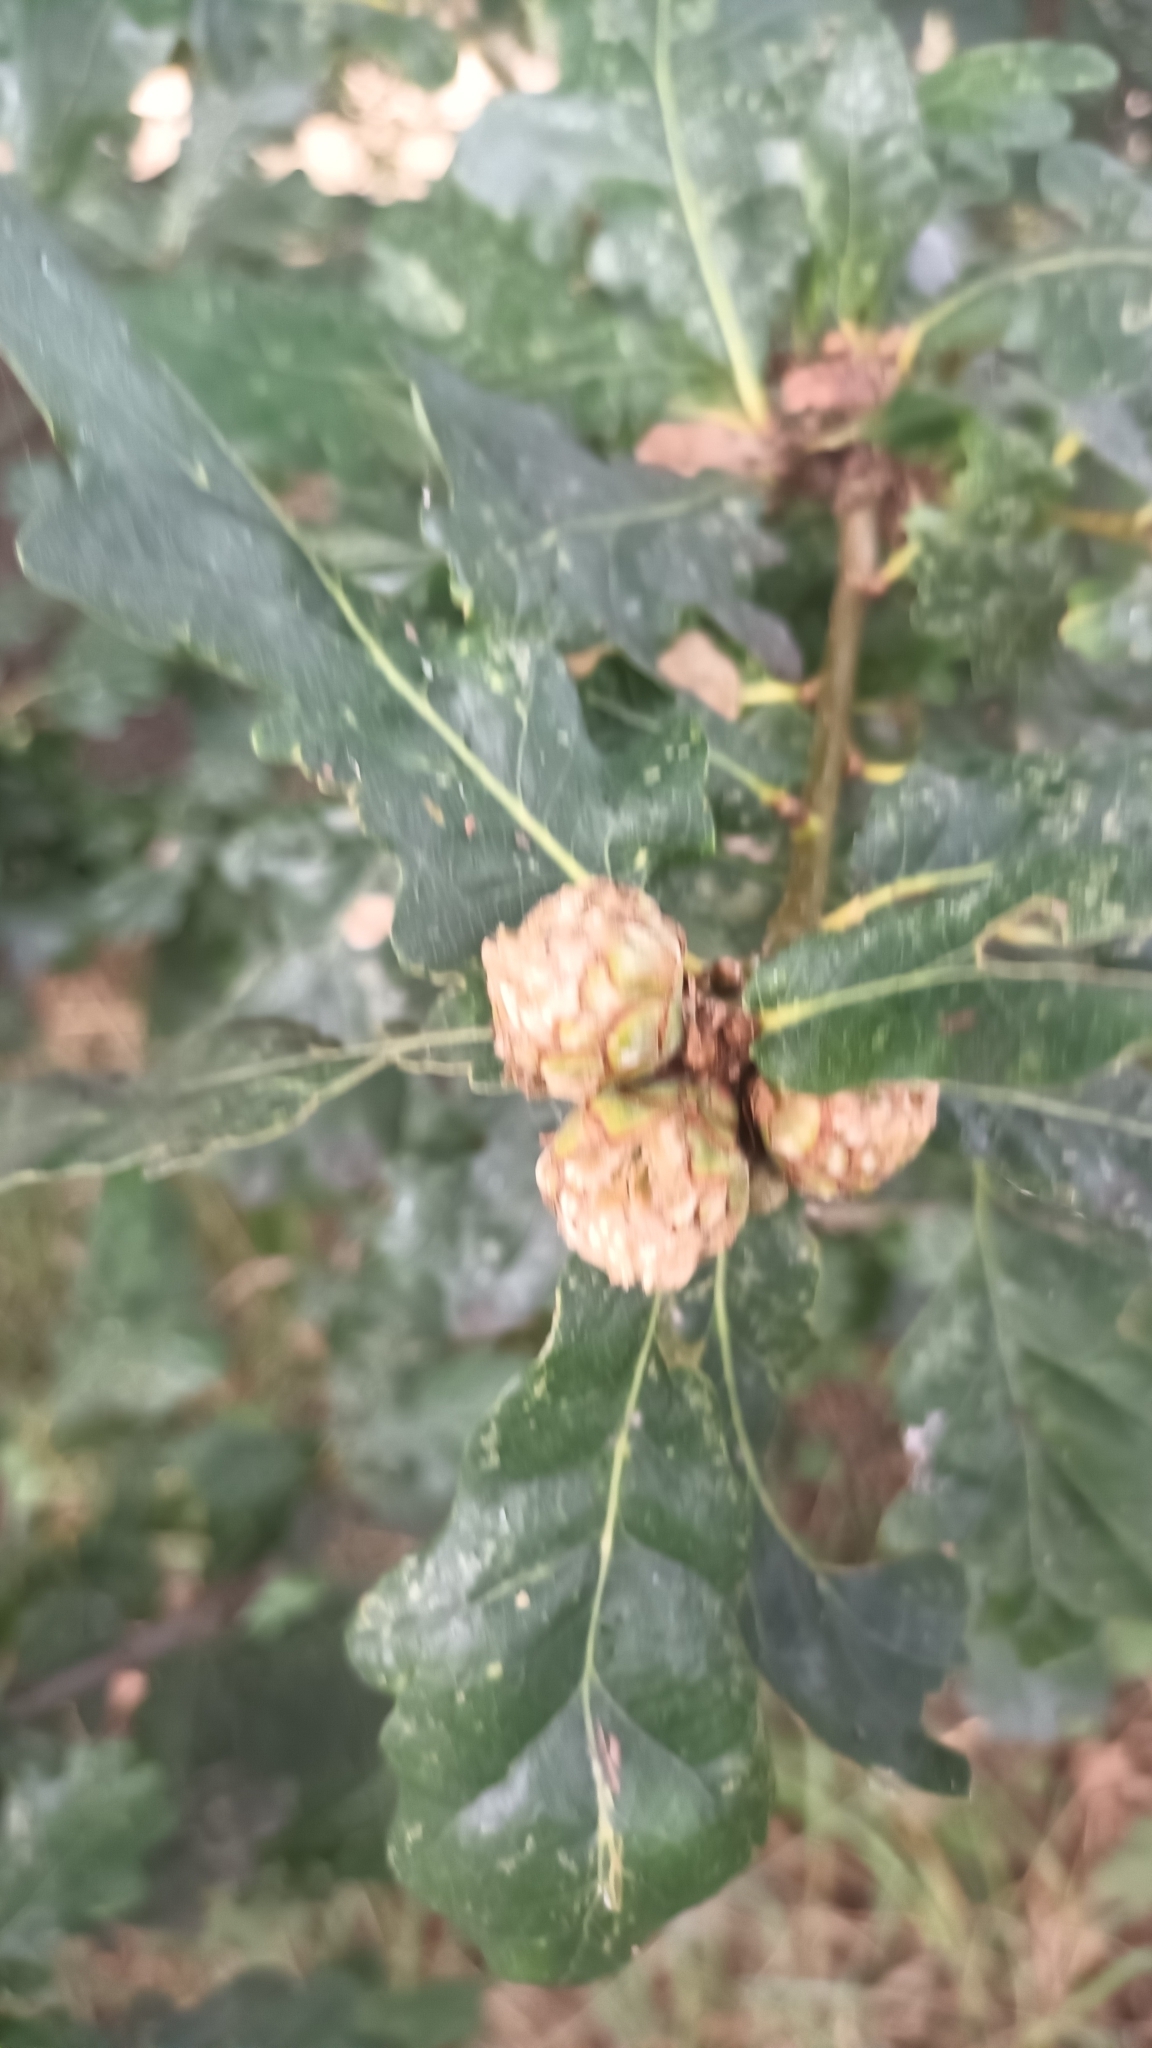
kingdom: Animalia
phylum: Arthropoda
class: Insecta
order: Hymenoptera
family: Cynipidae
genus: Andricus
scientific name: Andricus foecundatrix
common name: Artichoke gall
